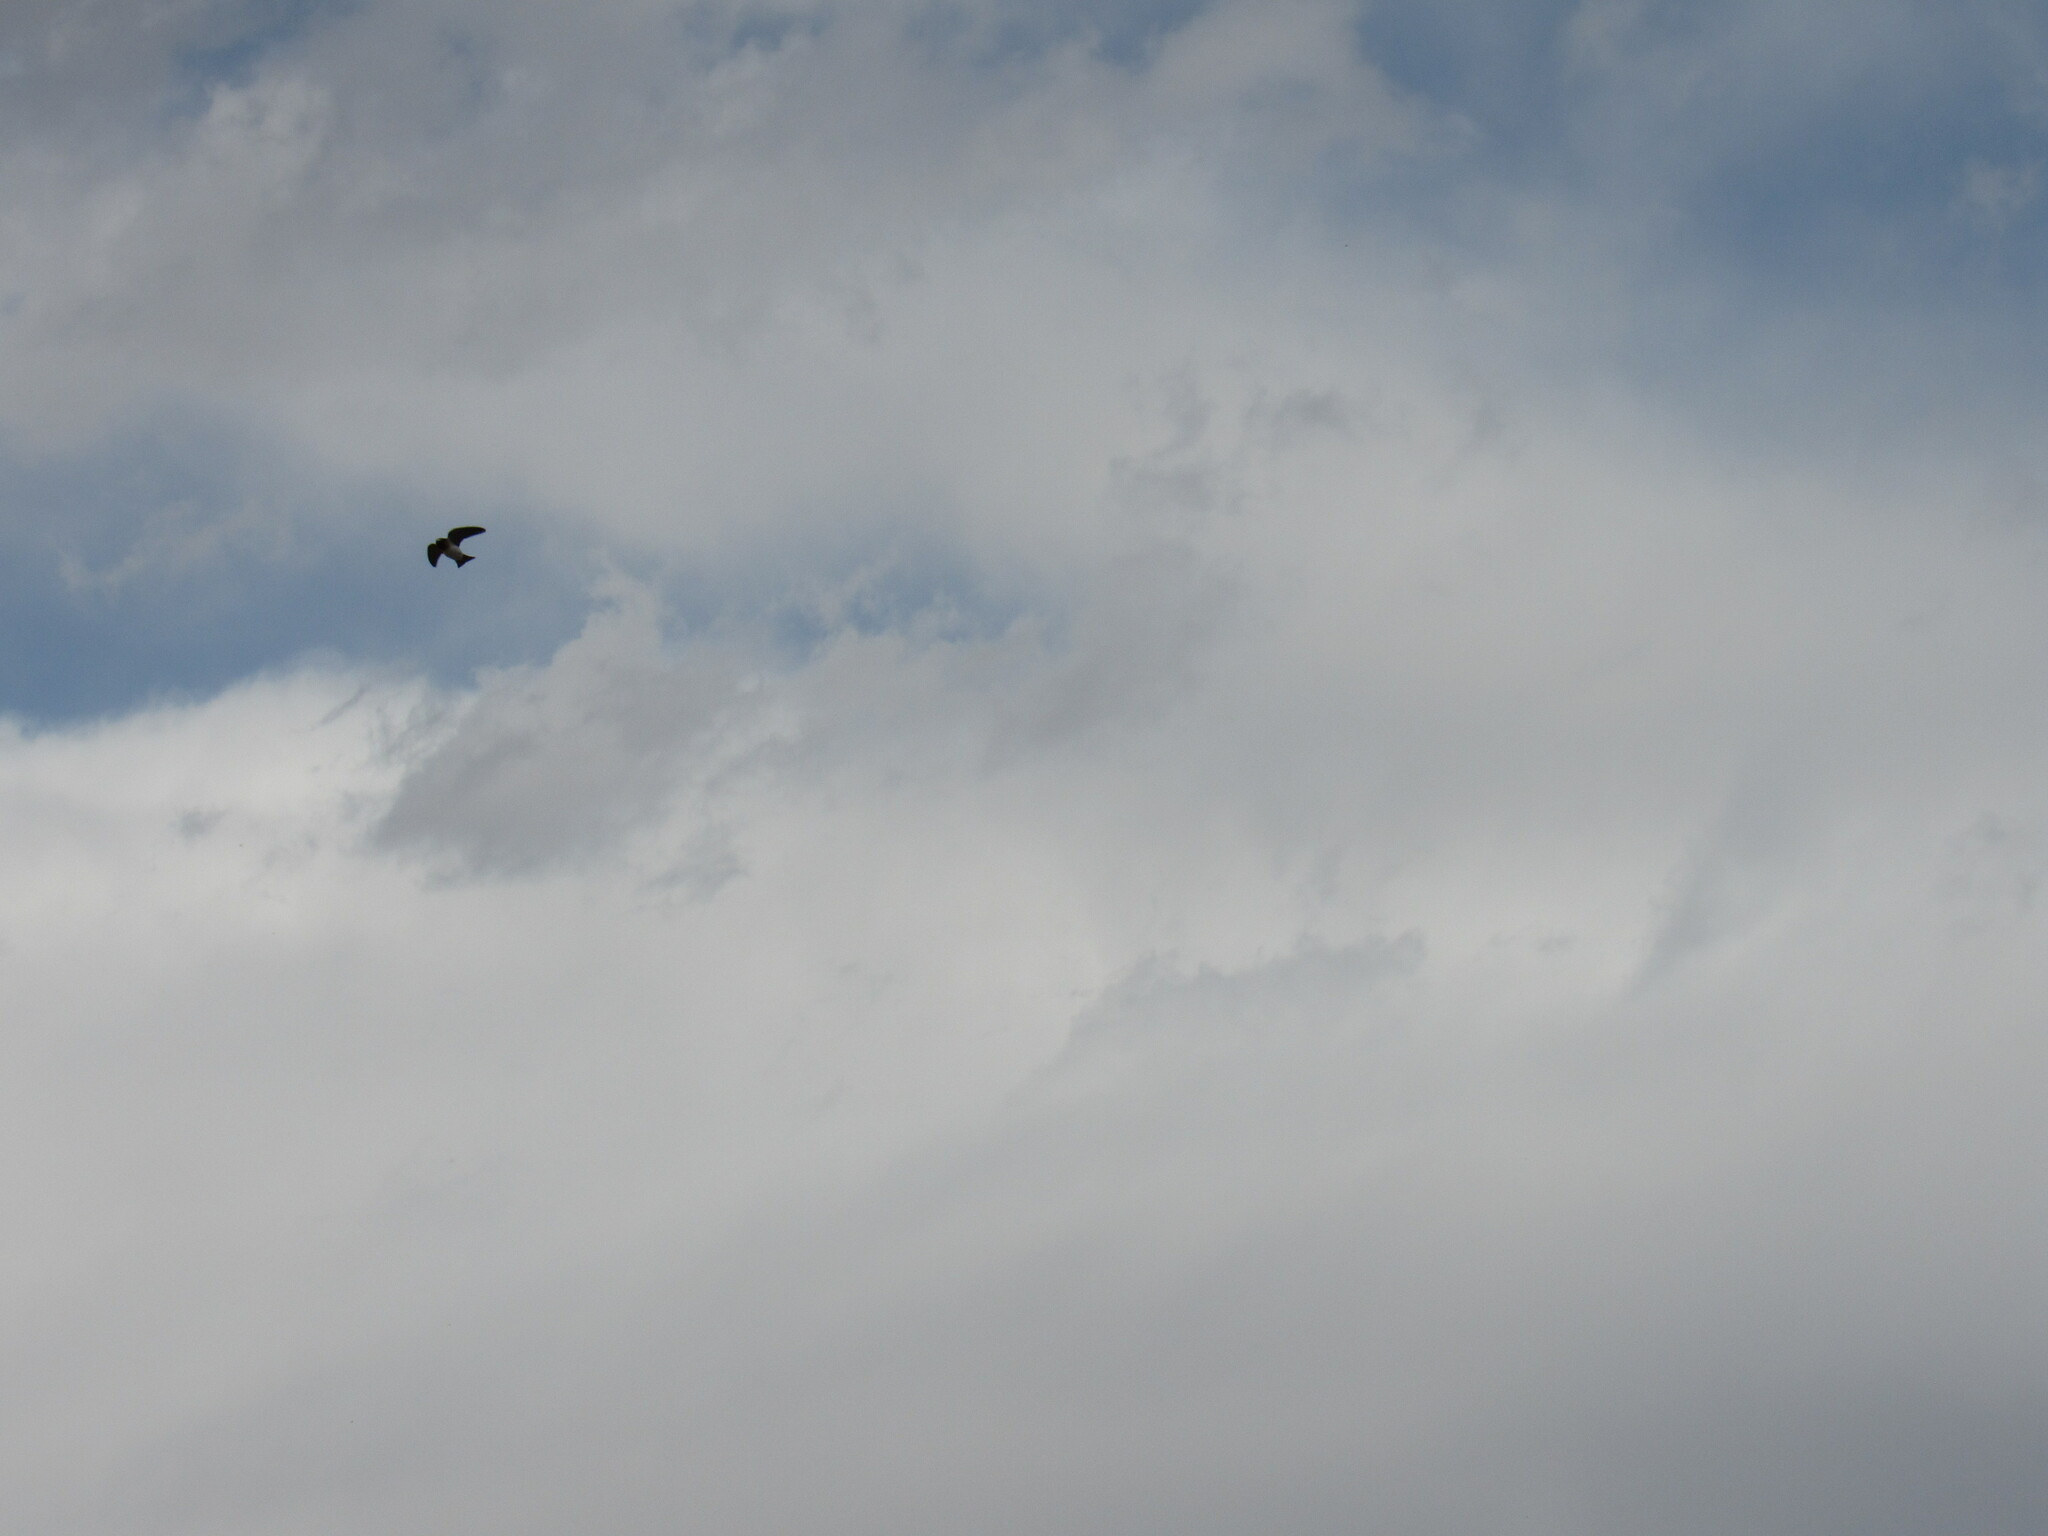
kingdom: Animalia
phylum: Chordata
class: Aves
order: Passeriformes
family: Hirundinidae
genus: Petrochelidon
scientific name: Petrochelidon pyrrhonota
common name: American cliff swallow
